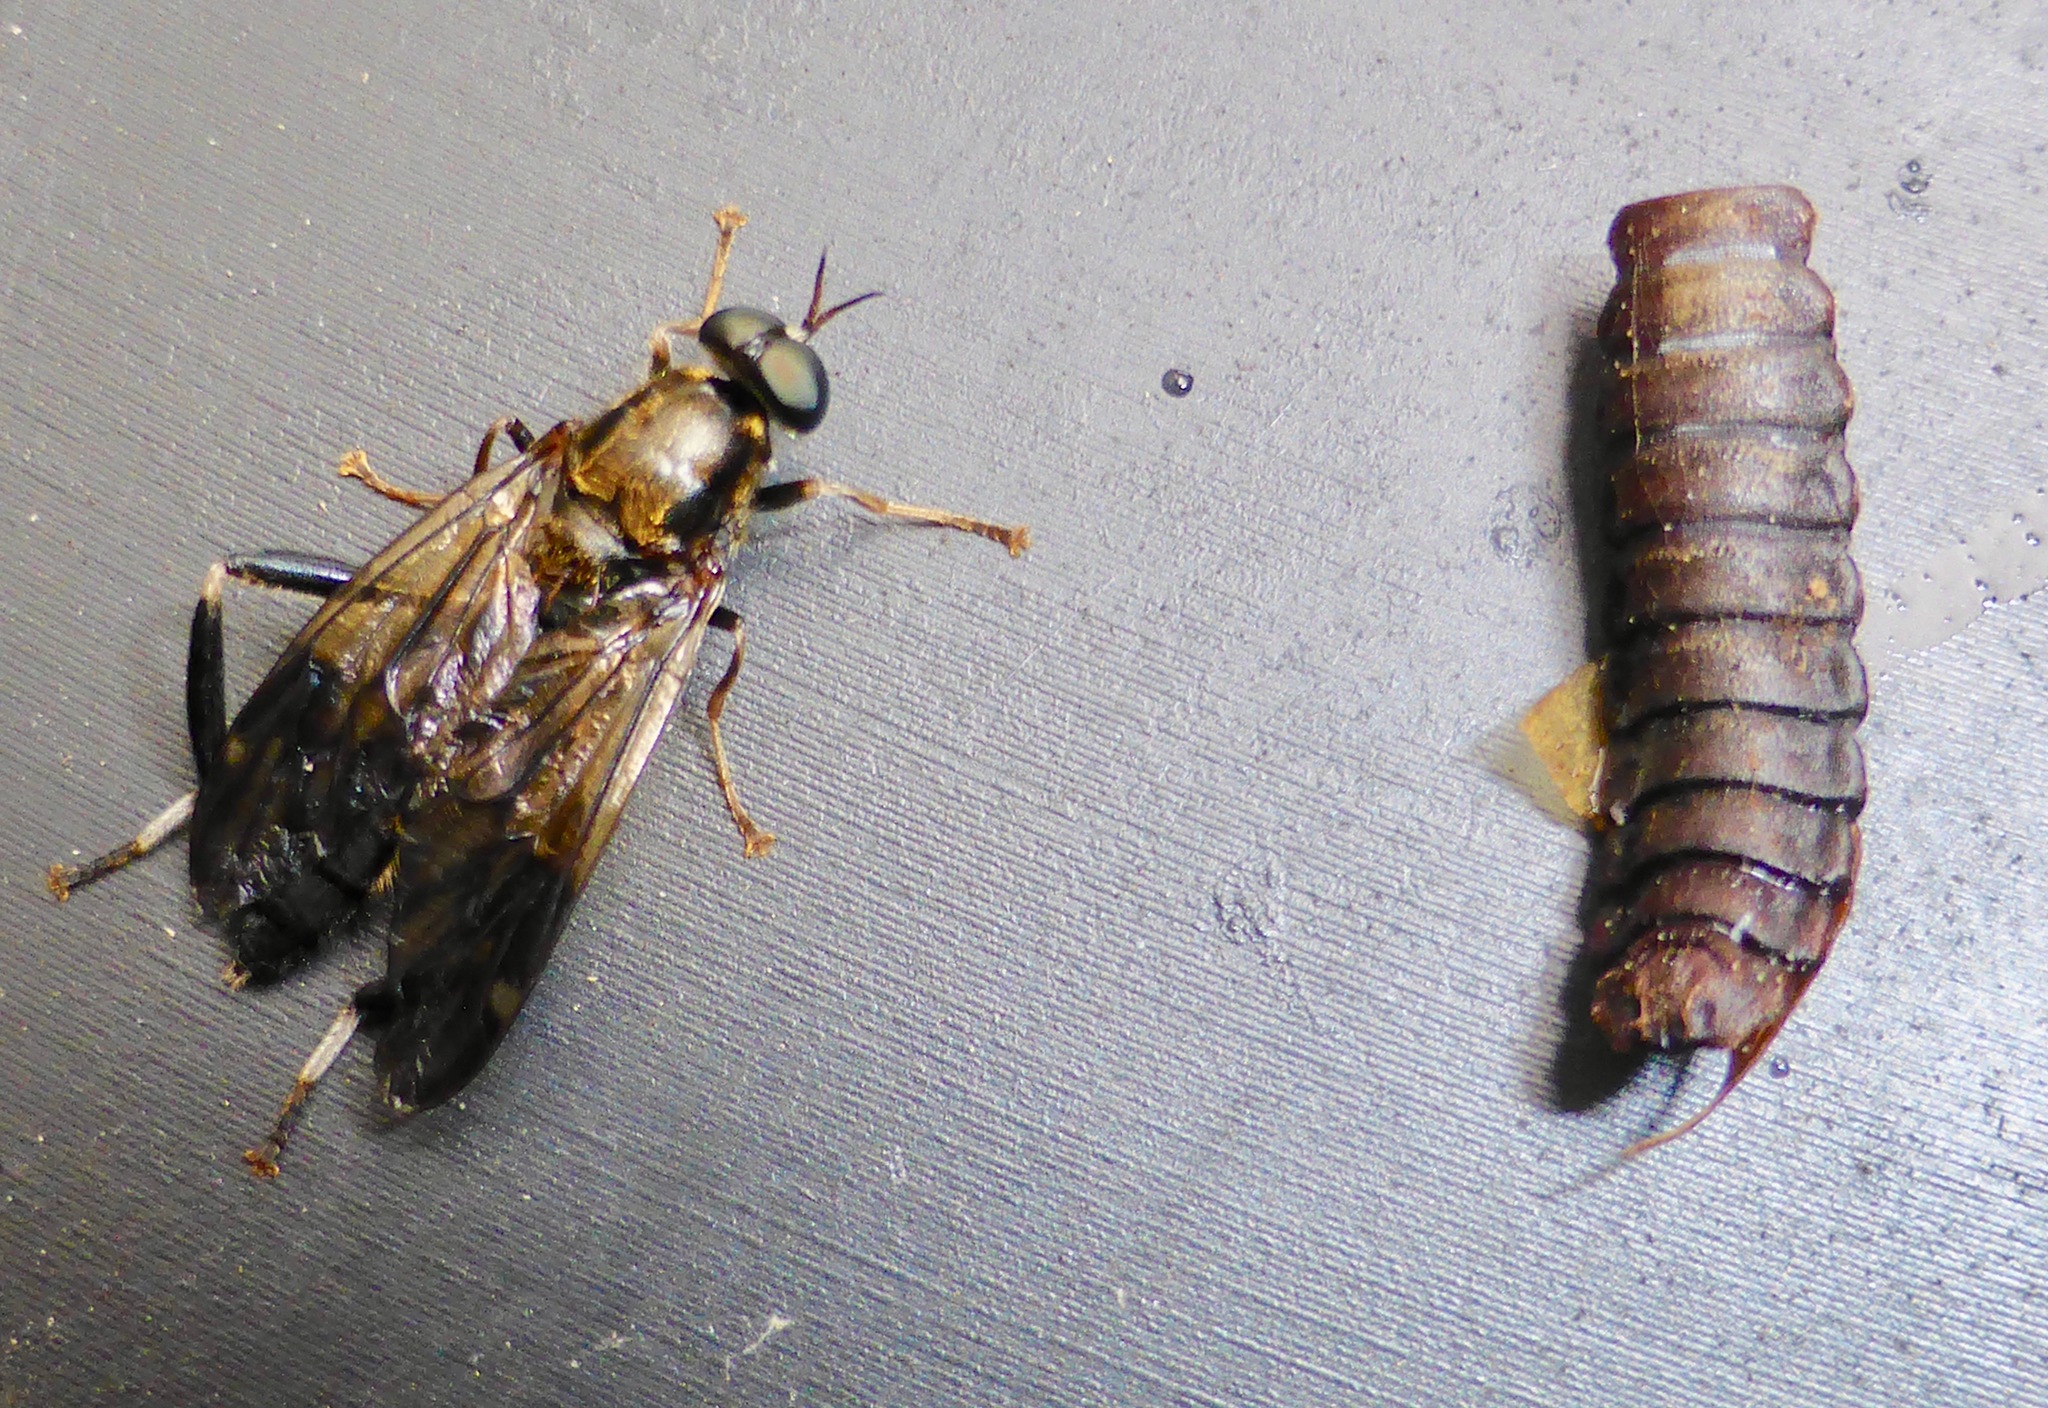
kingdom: Animalia
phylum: Arthropoda
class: Insecta
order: Diptera
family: Stratiomyidae
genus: Exaireta
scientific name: Exaireta spinigera
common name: Blue soldier fly
